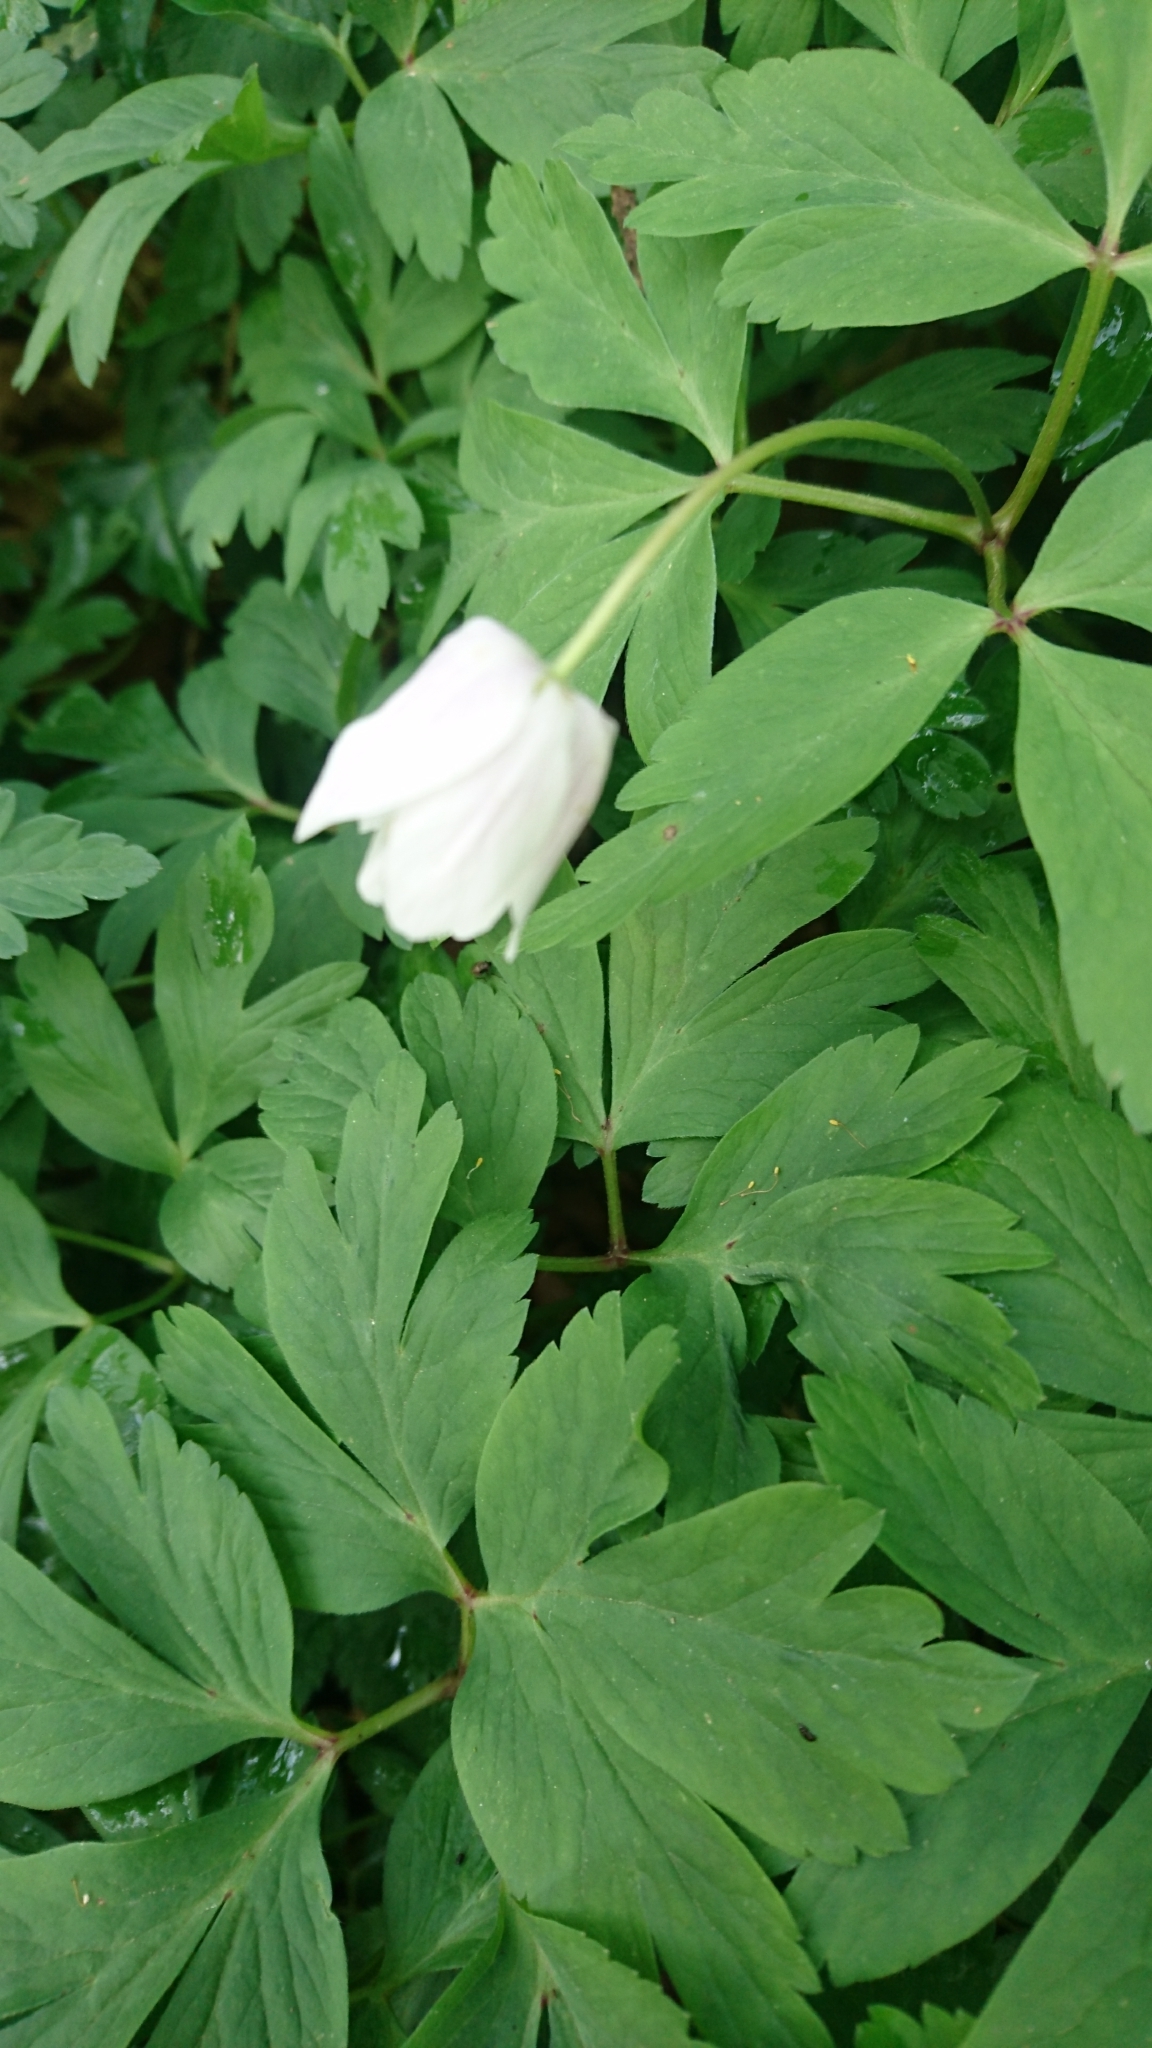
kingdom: Plantae
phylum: Tracheophyta
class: Magnoliopsida
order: Ranunculales
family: Ranunculaceae
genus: Anemone
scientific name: Anemone nemorosa
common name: Wood anemone
